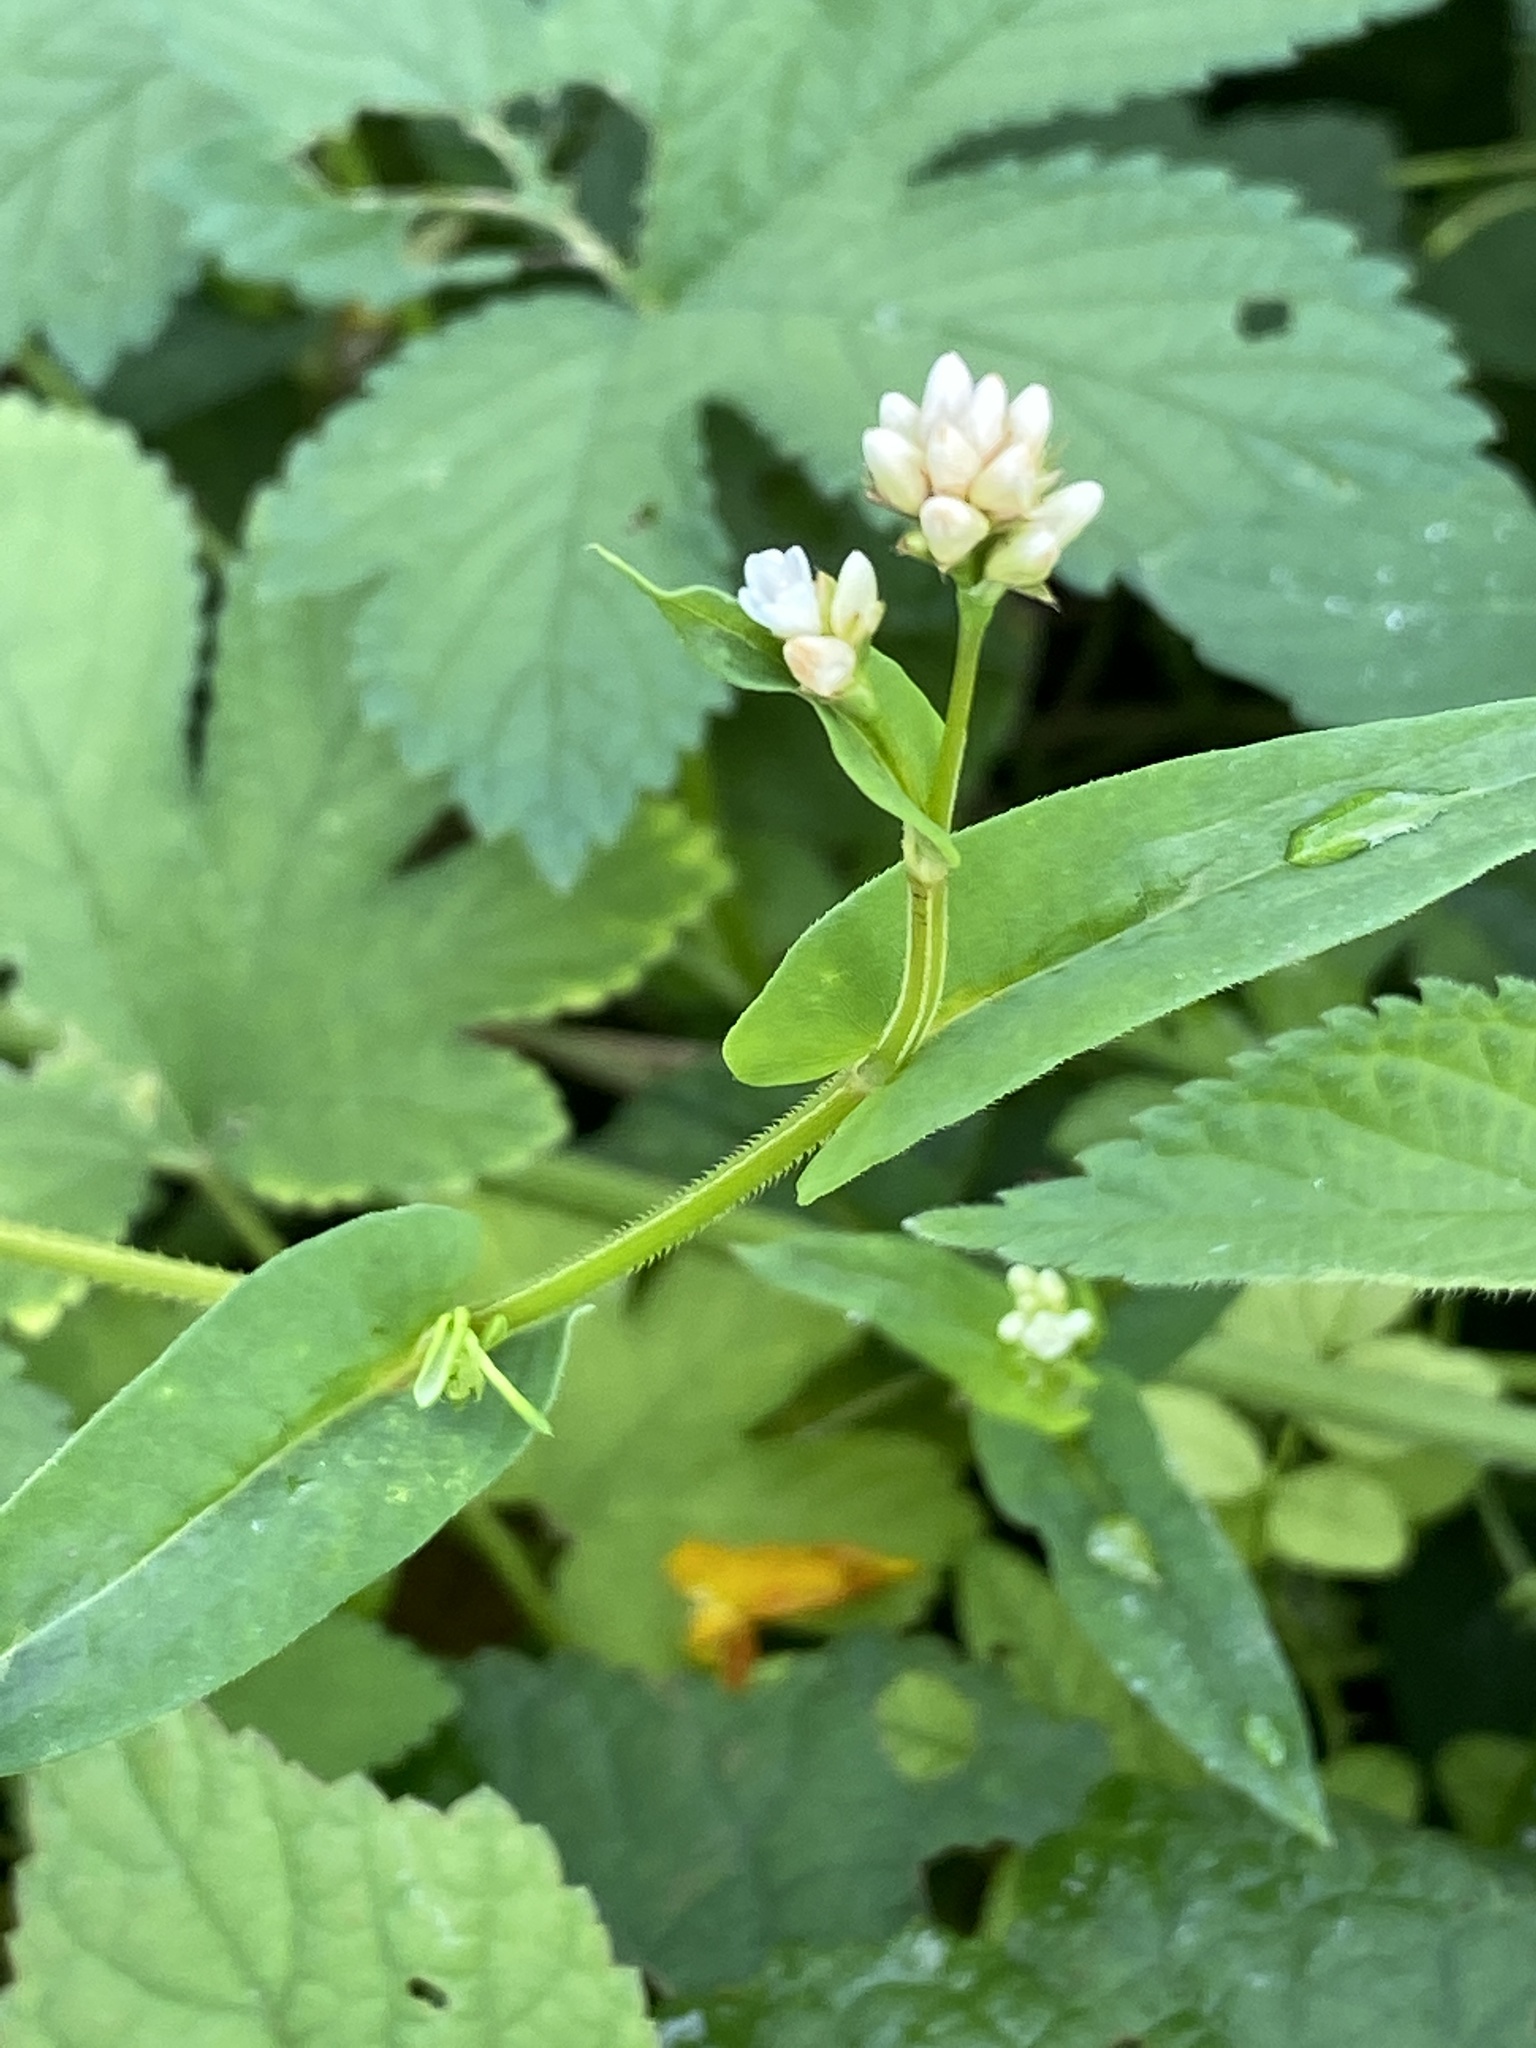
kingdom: Plantae
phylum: Tracheophyta
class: Magnoliopsida
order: Caryophyllales
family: Polygonaceae
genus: Persicaria
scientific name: Persicaria sagittata
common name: American tearthumb
